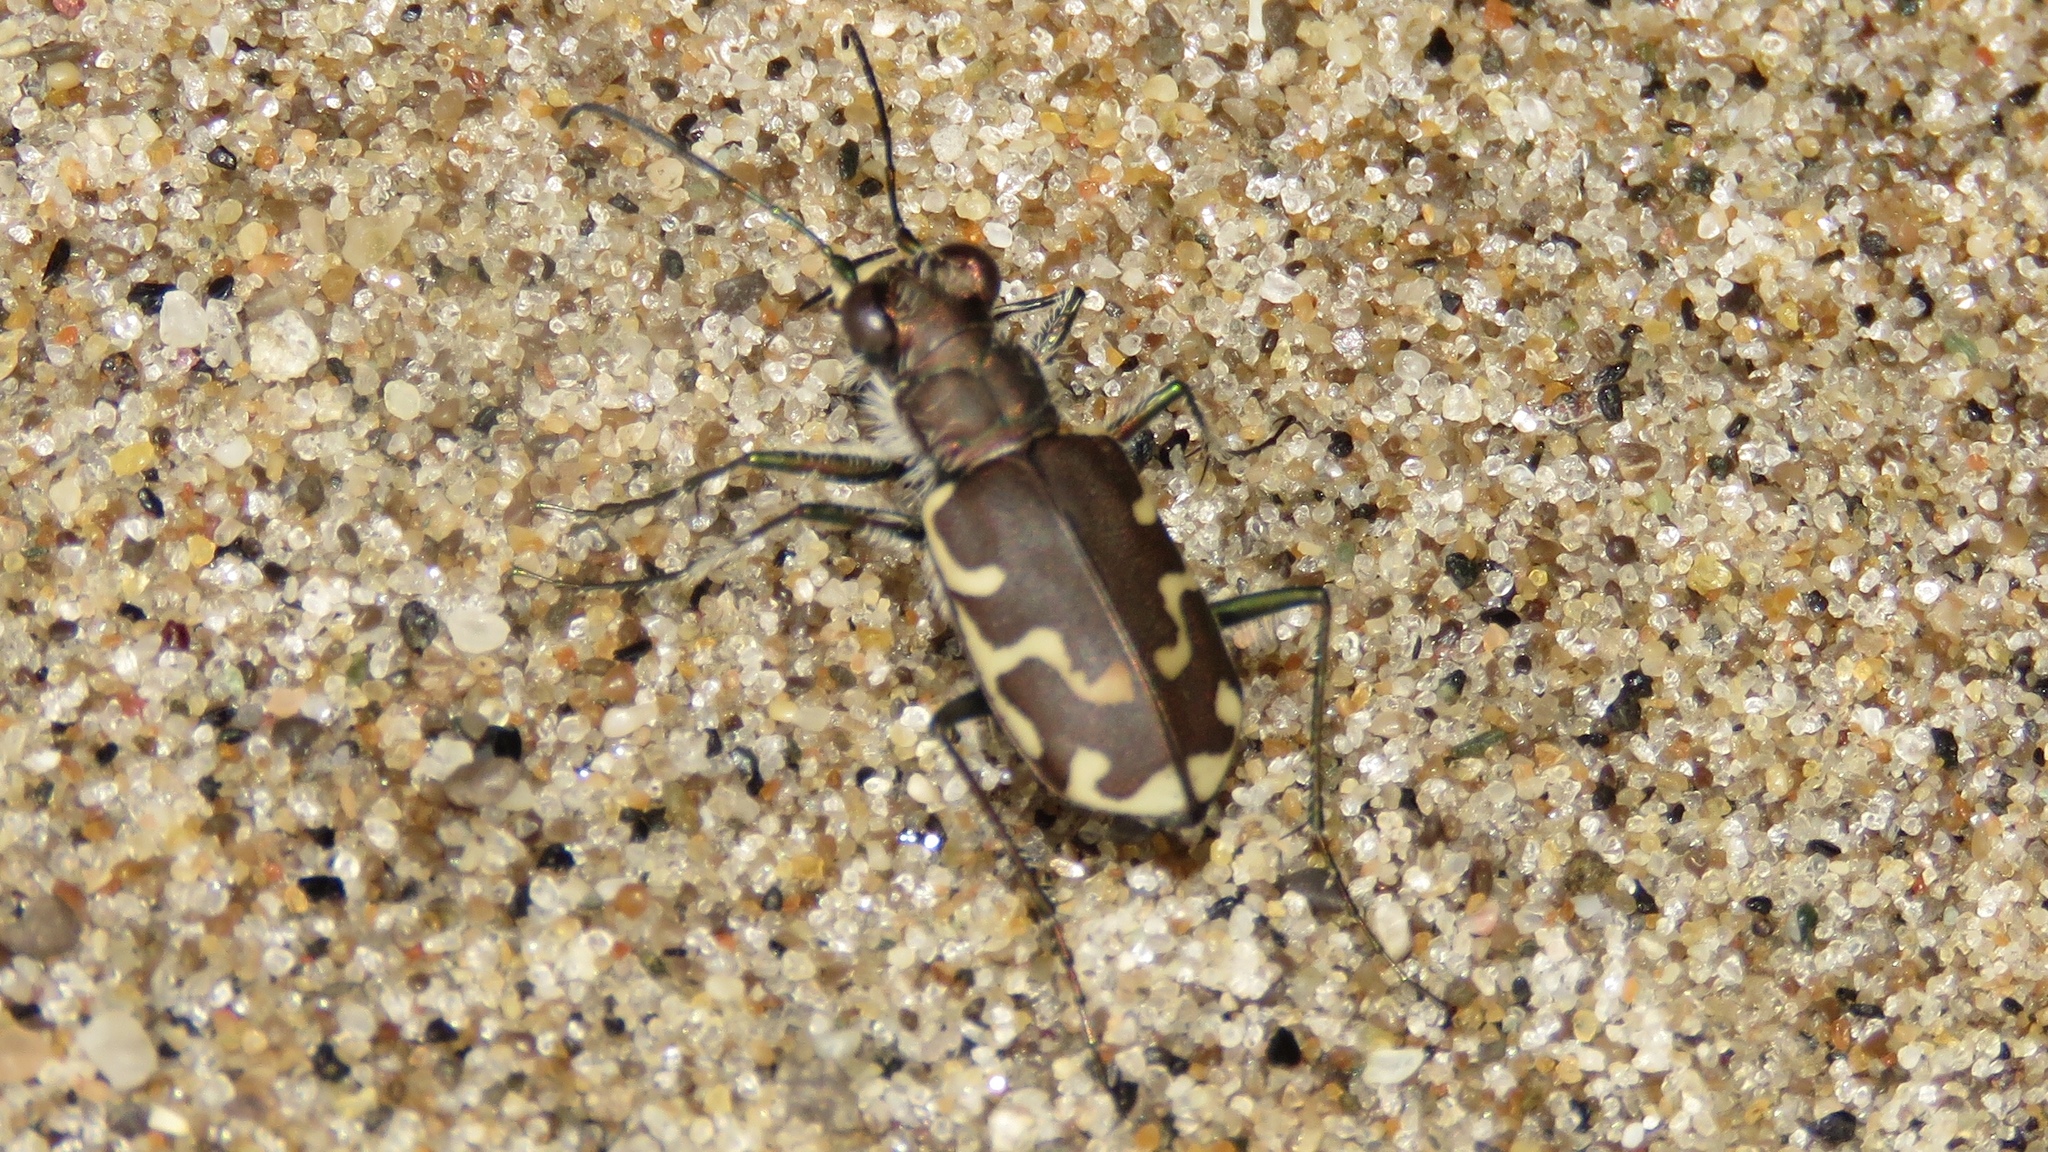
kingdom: Animalia
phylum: Arthropoda
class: Insecta
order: Coleoptera
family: Carabidae
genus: Cicindela
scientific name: Cicindela repanda
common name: Bronzed tiger beetle
